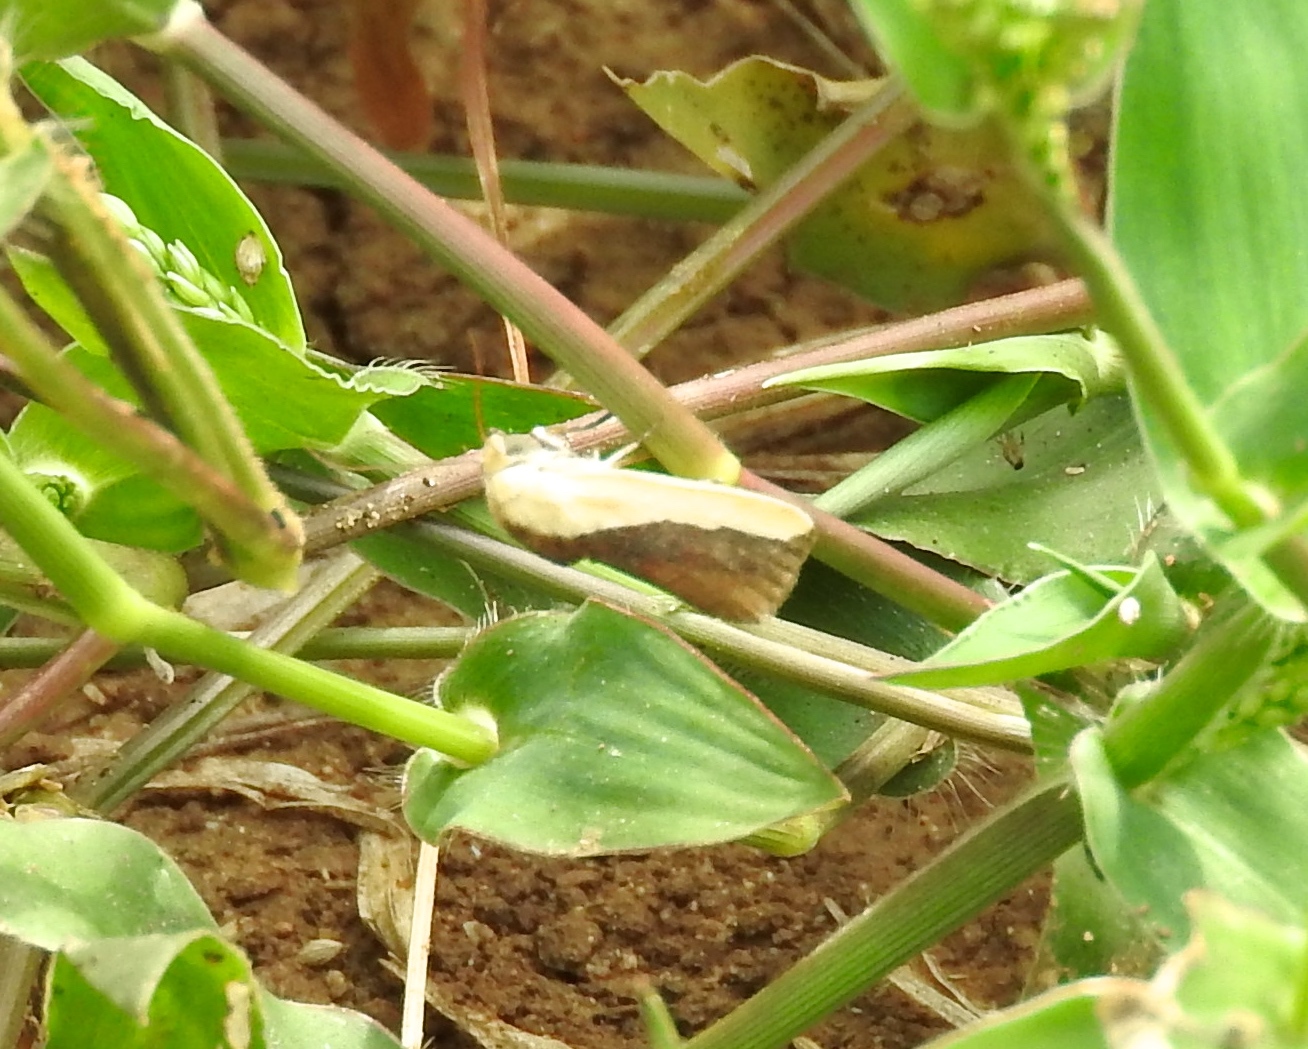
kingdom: Animalia
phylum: Arthropoda
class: Insecta
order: Lepidoptera
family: Noctuidae
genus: Acontia
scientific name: Acontia exigua
